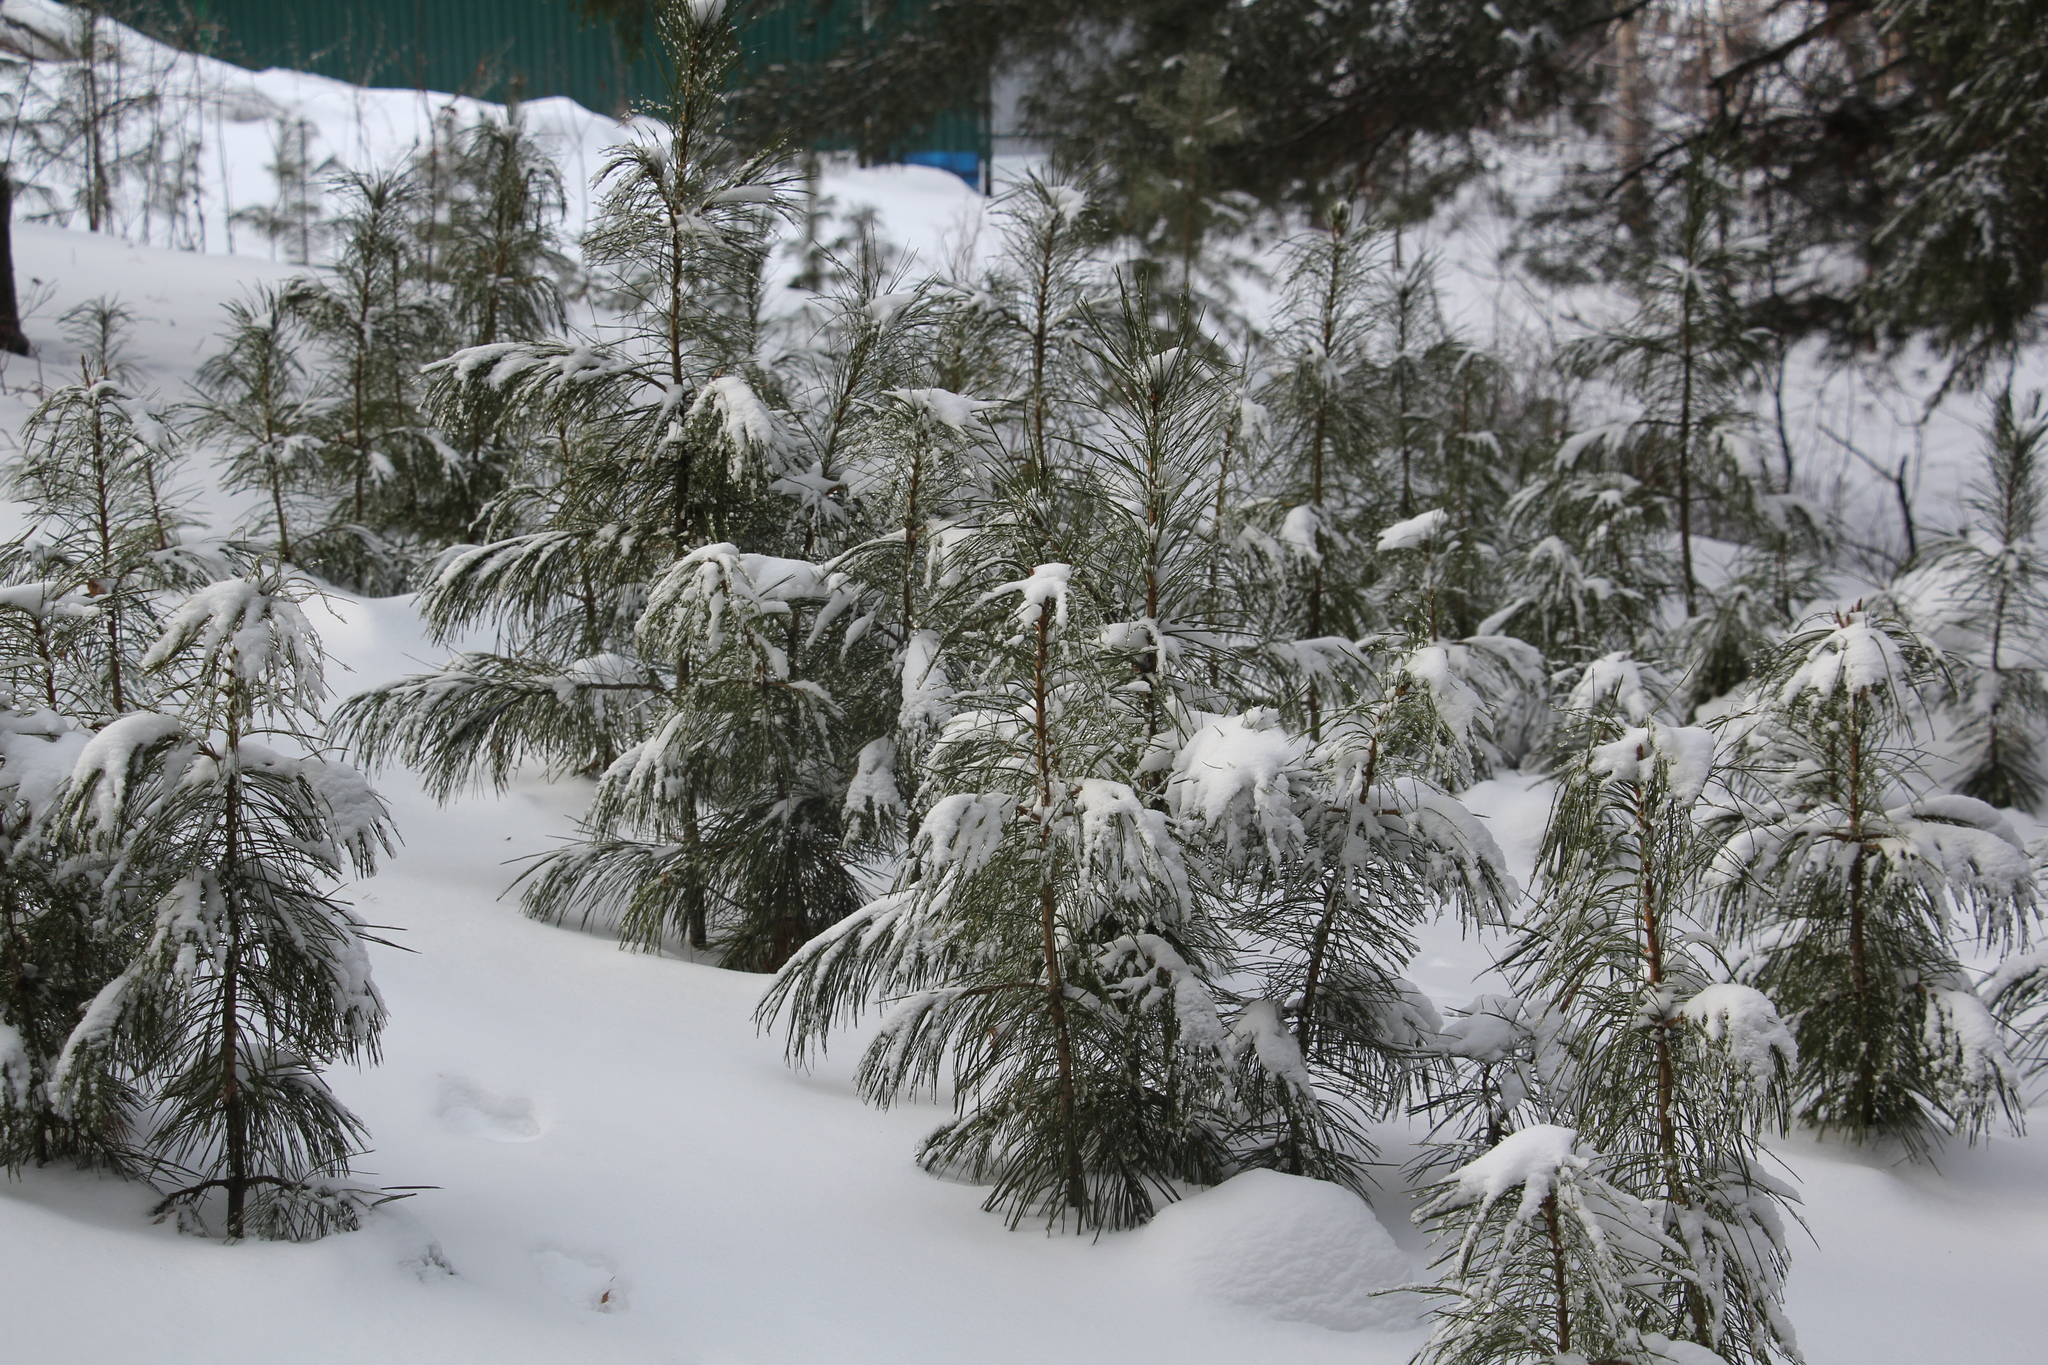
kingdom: Plantae
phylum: Tracheophyta
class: Pinopsida
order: Pinales
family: Pinaceae
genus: Pinus
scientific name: Pinus sibirica
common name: Siberian pine
